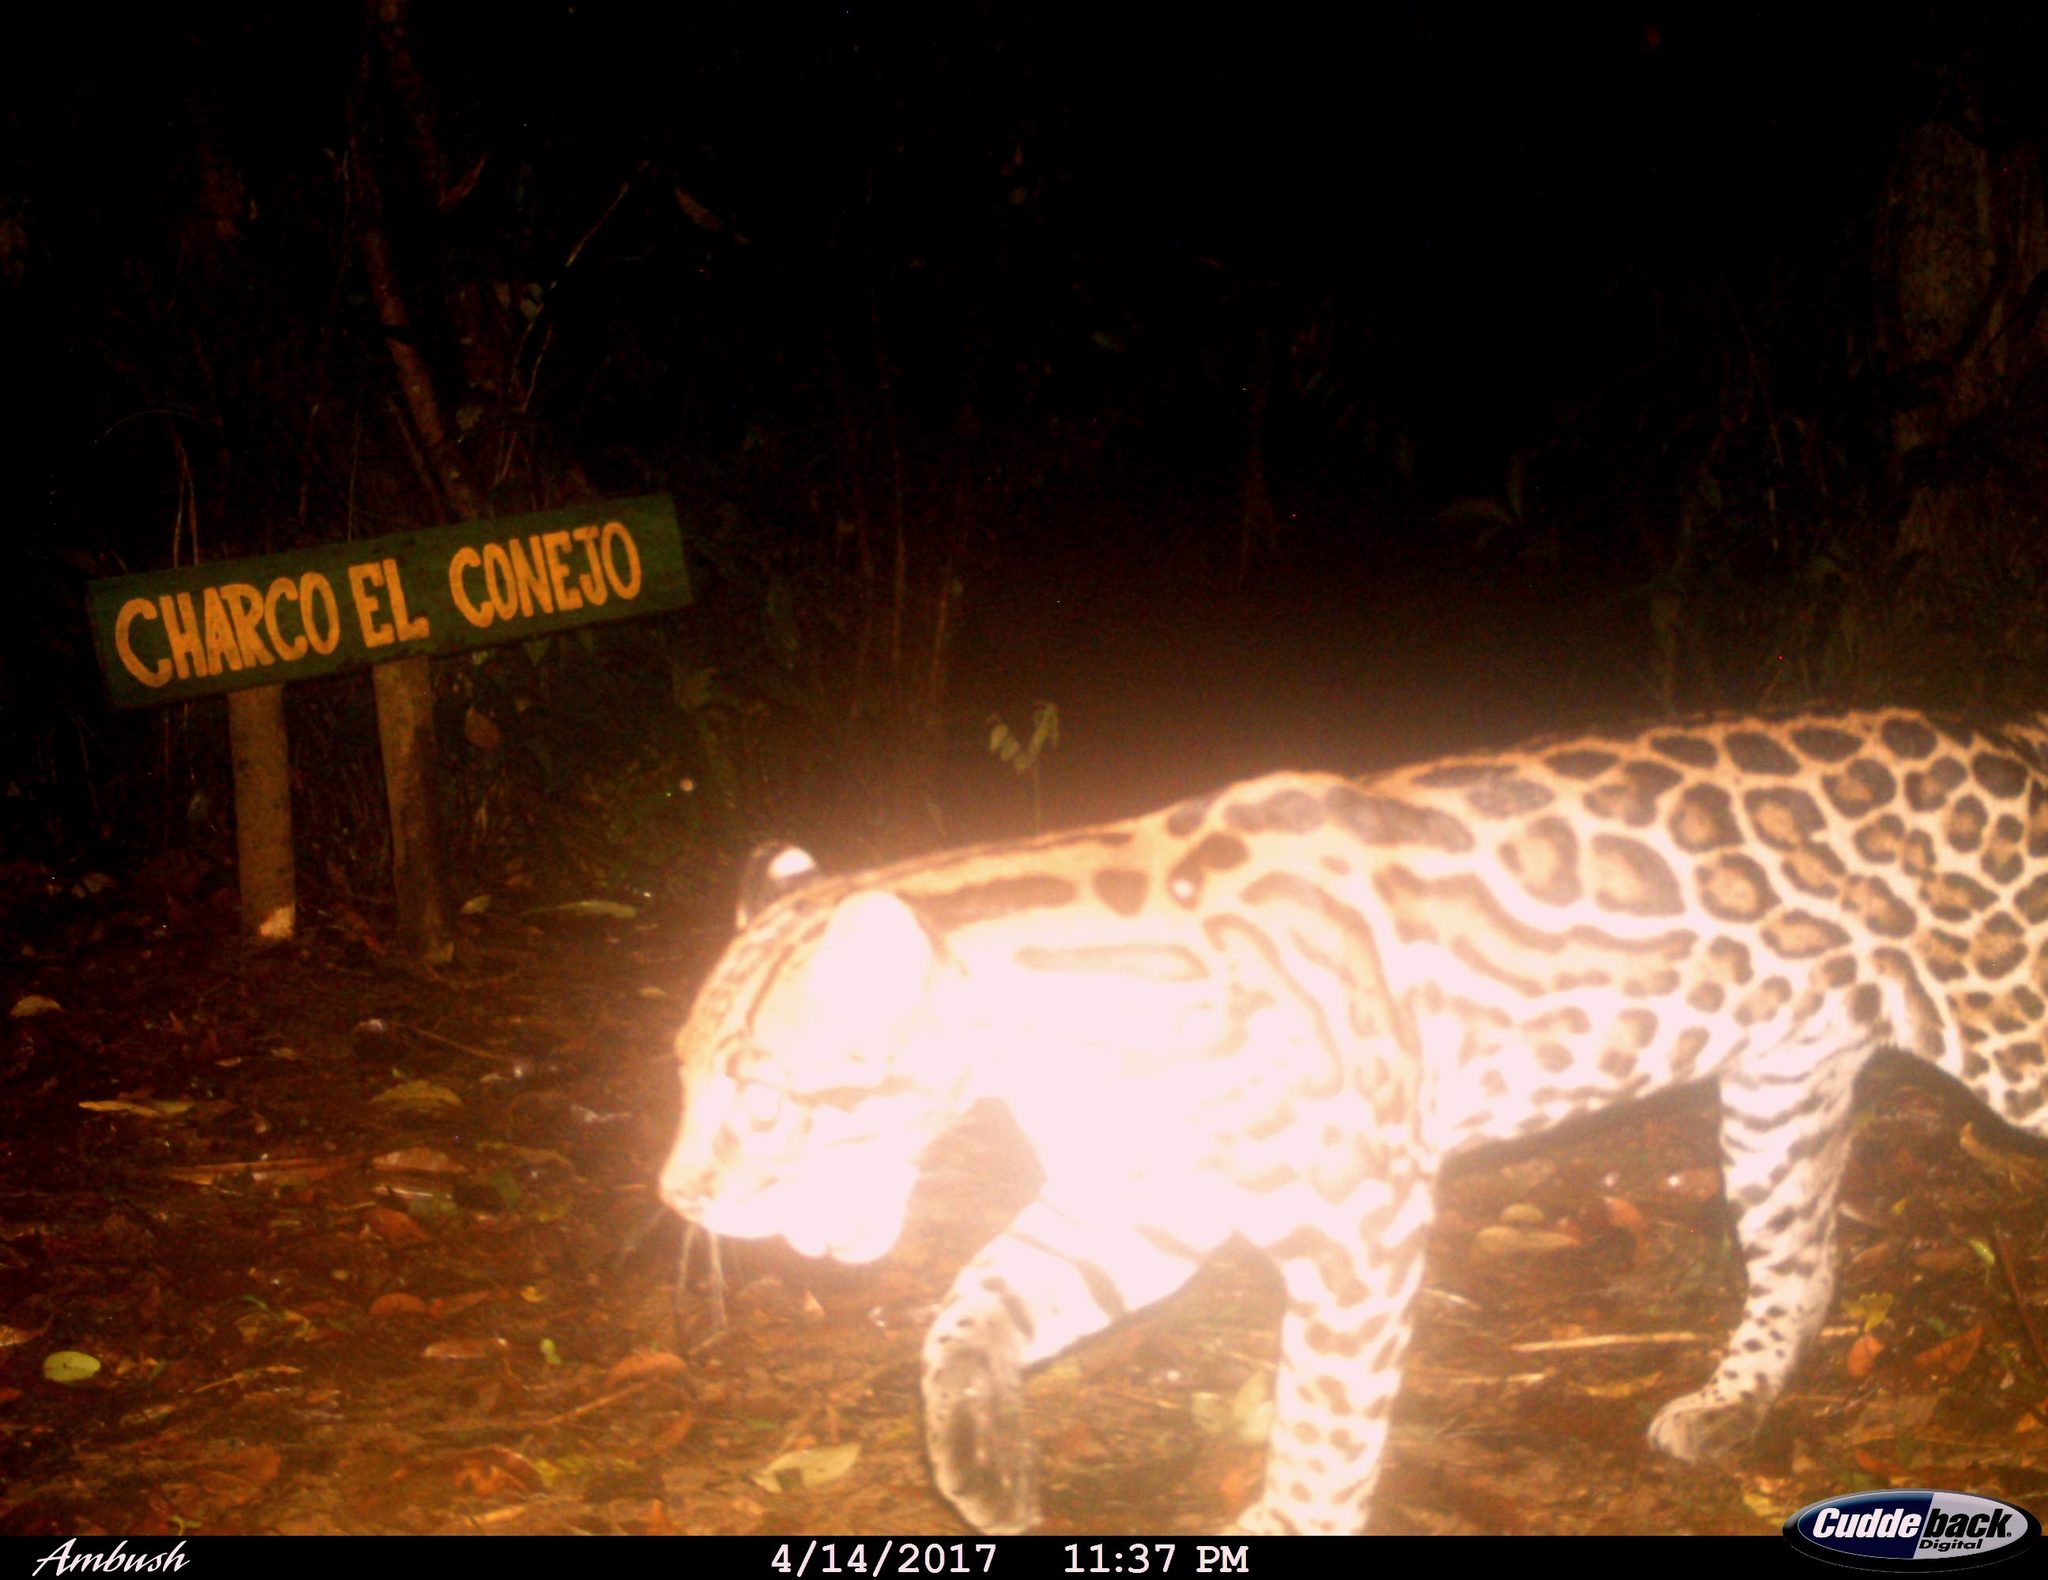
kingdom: Animalia
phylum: Chordata
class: Mammalia
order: Carnivora
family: Felidae
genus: Leopardus
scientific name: Leopardus pardalis
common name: Ocelot
